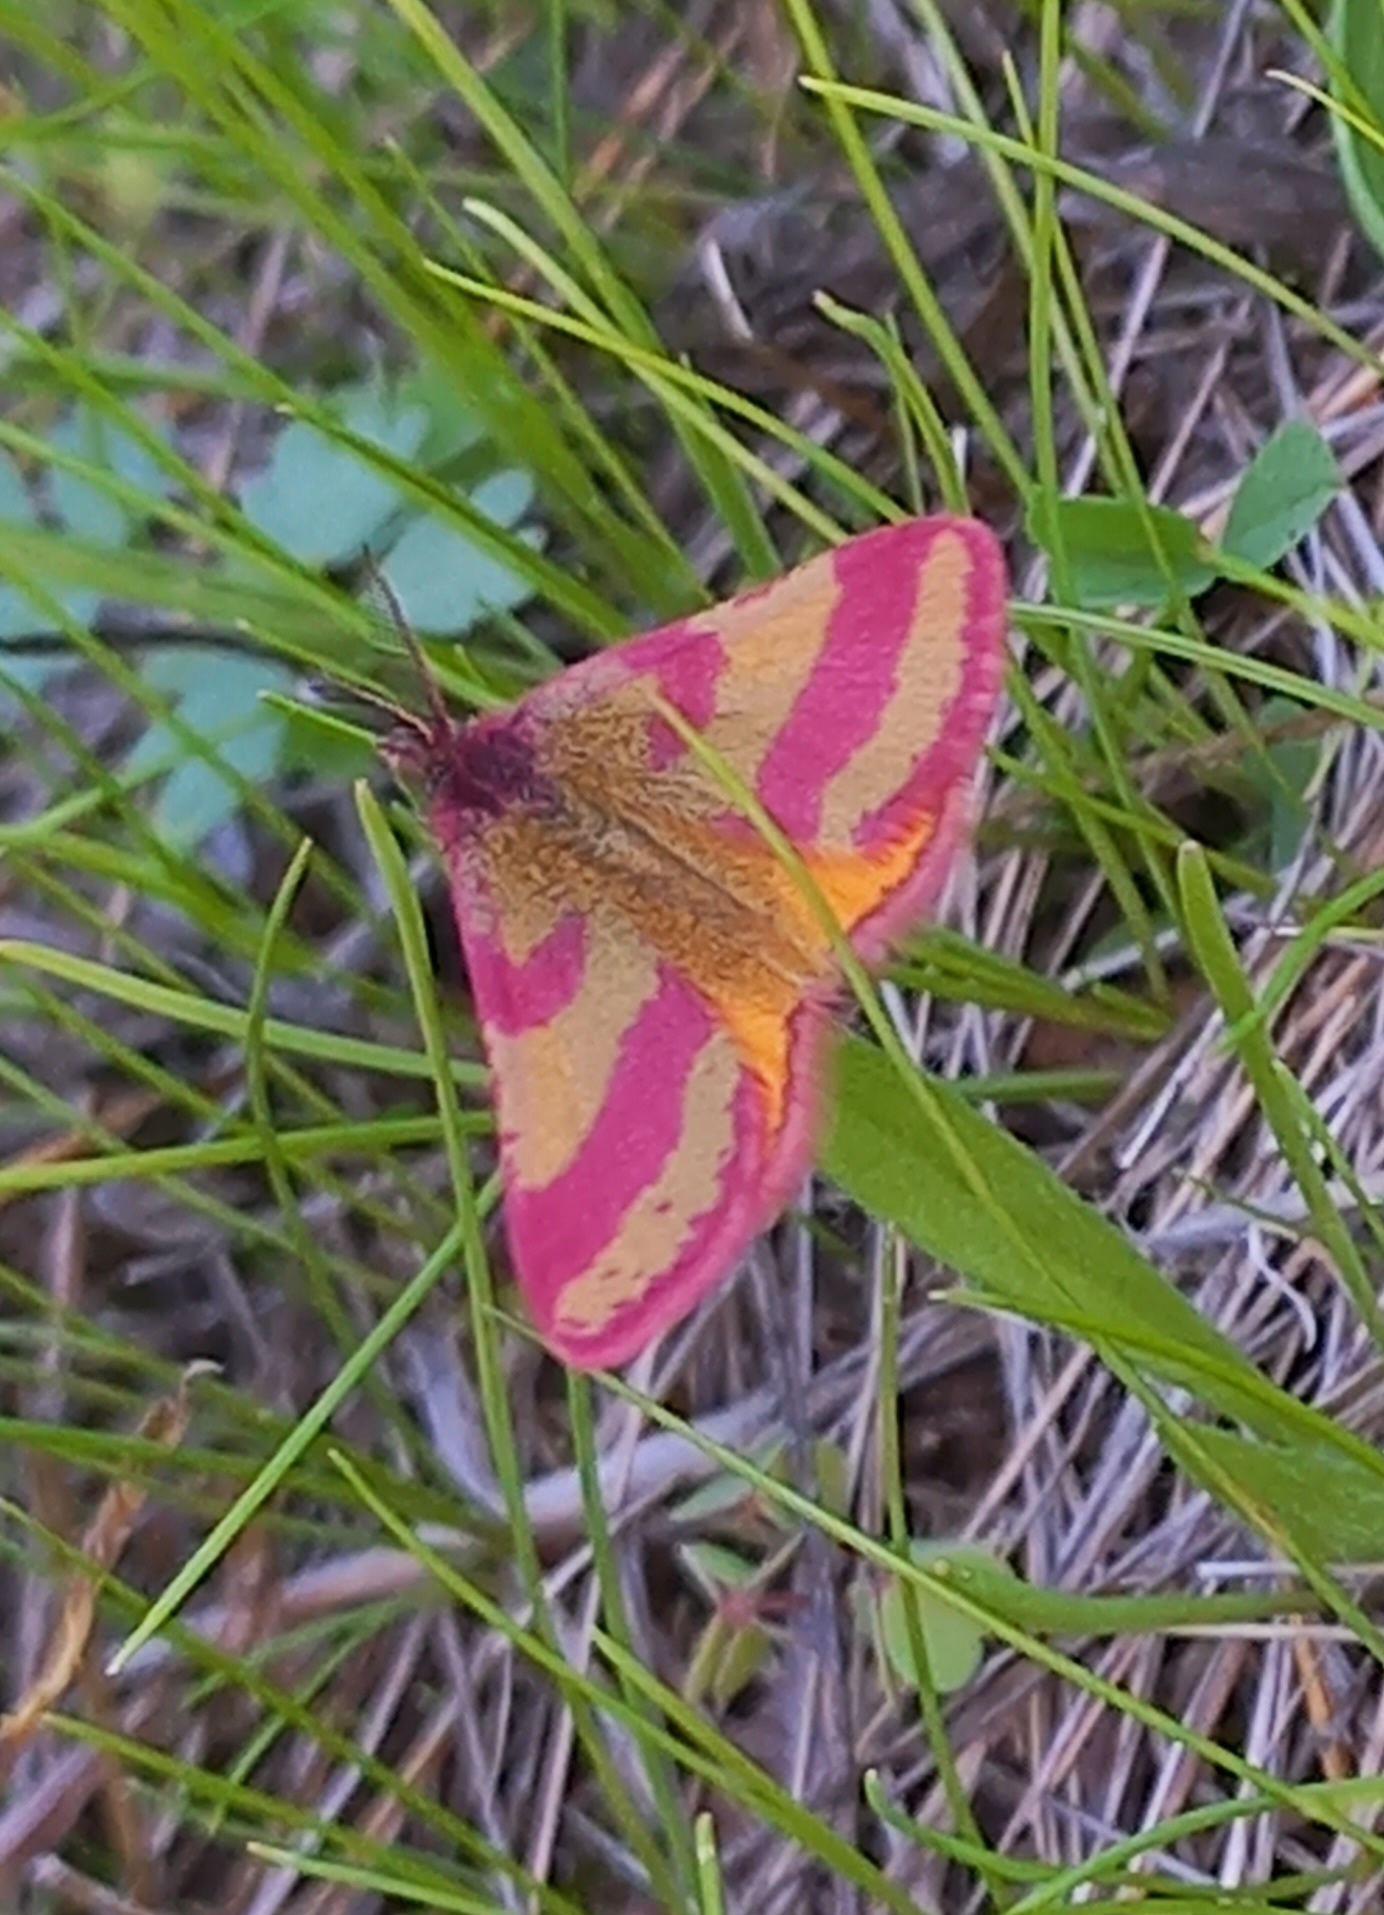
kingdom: Animalia
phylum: Arthropoda
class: Insecta
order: Lepidoptera
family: Geometridae
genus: Lythria
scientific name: Lythria cruentaria
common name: Purple-barred yellow
